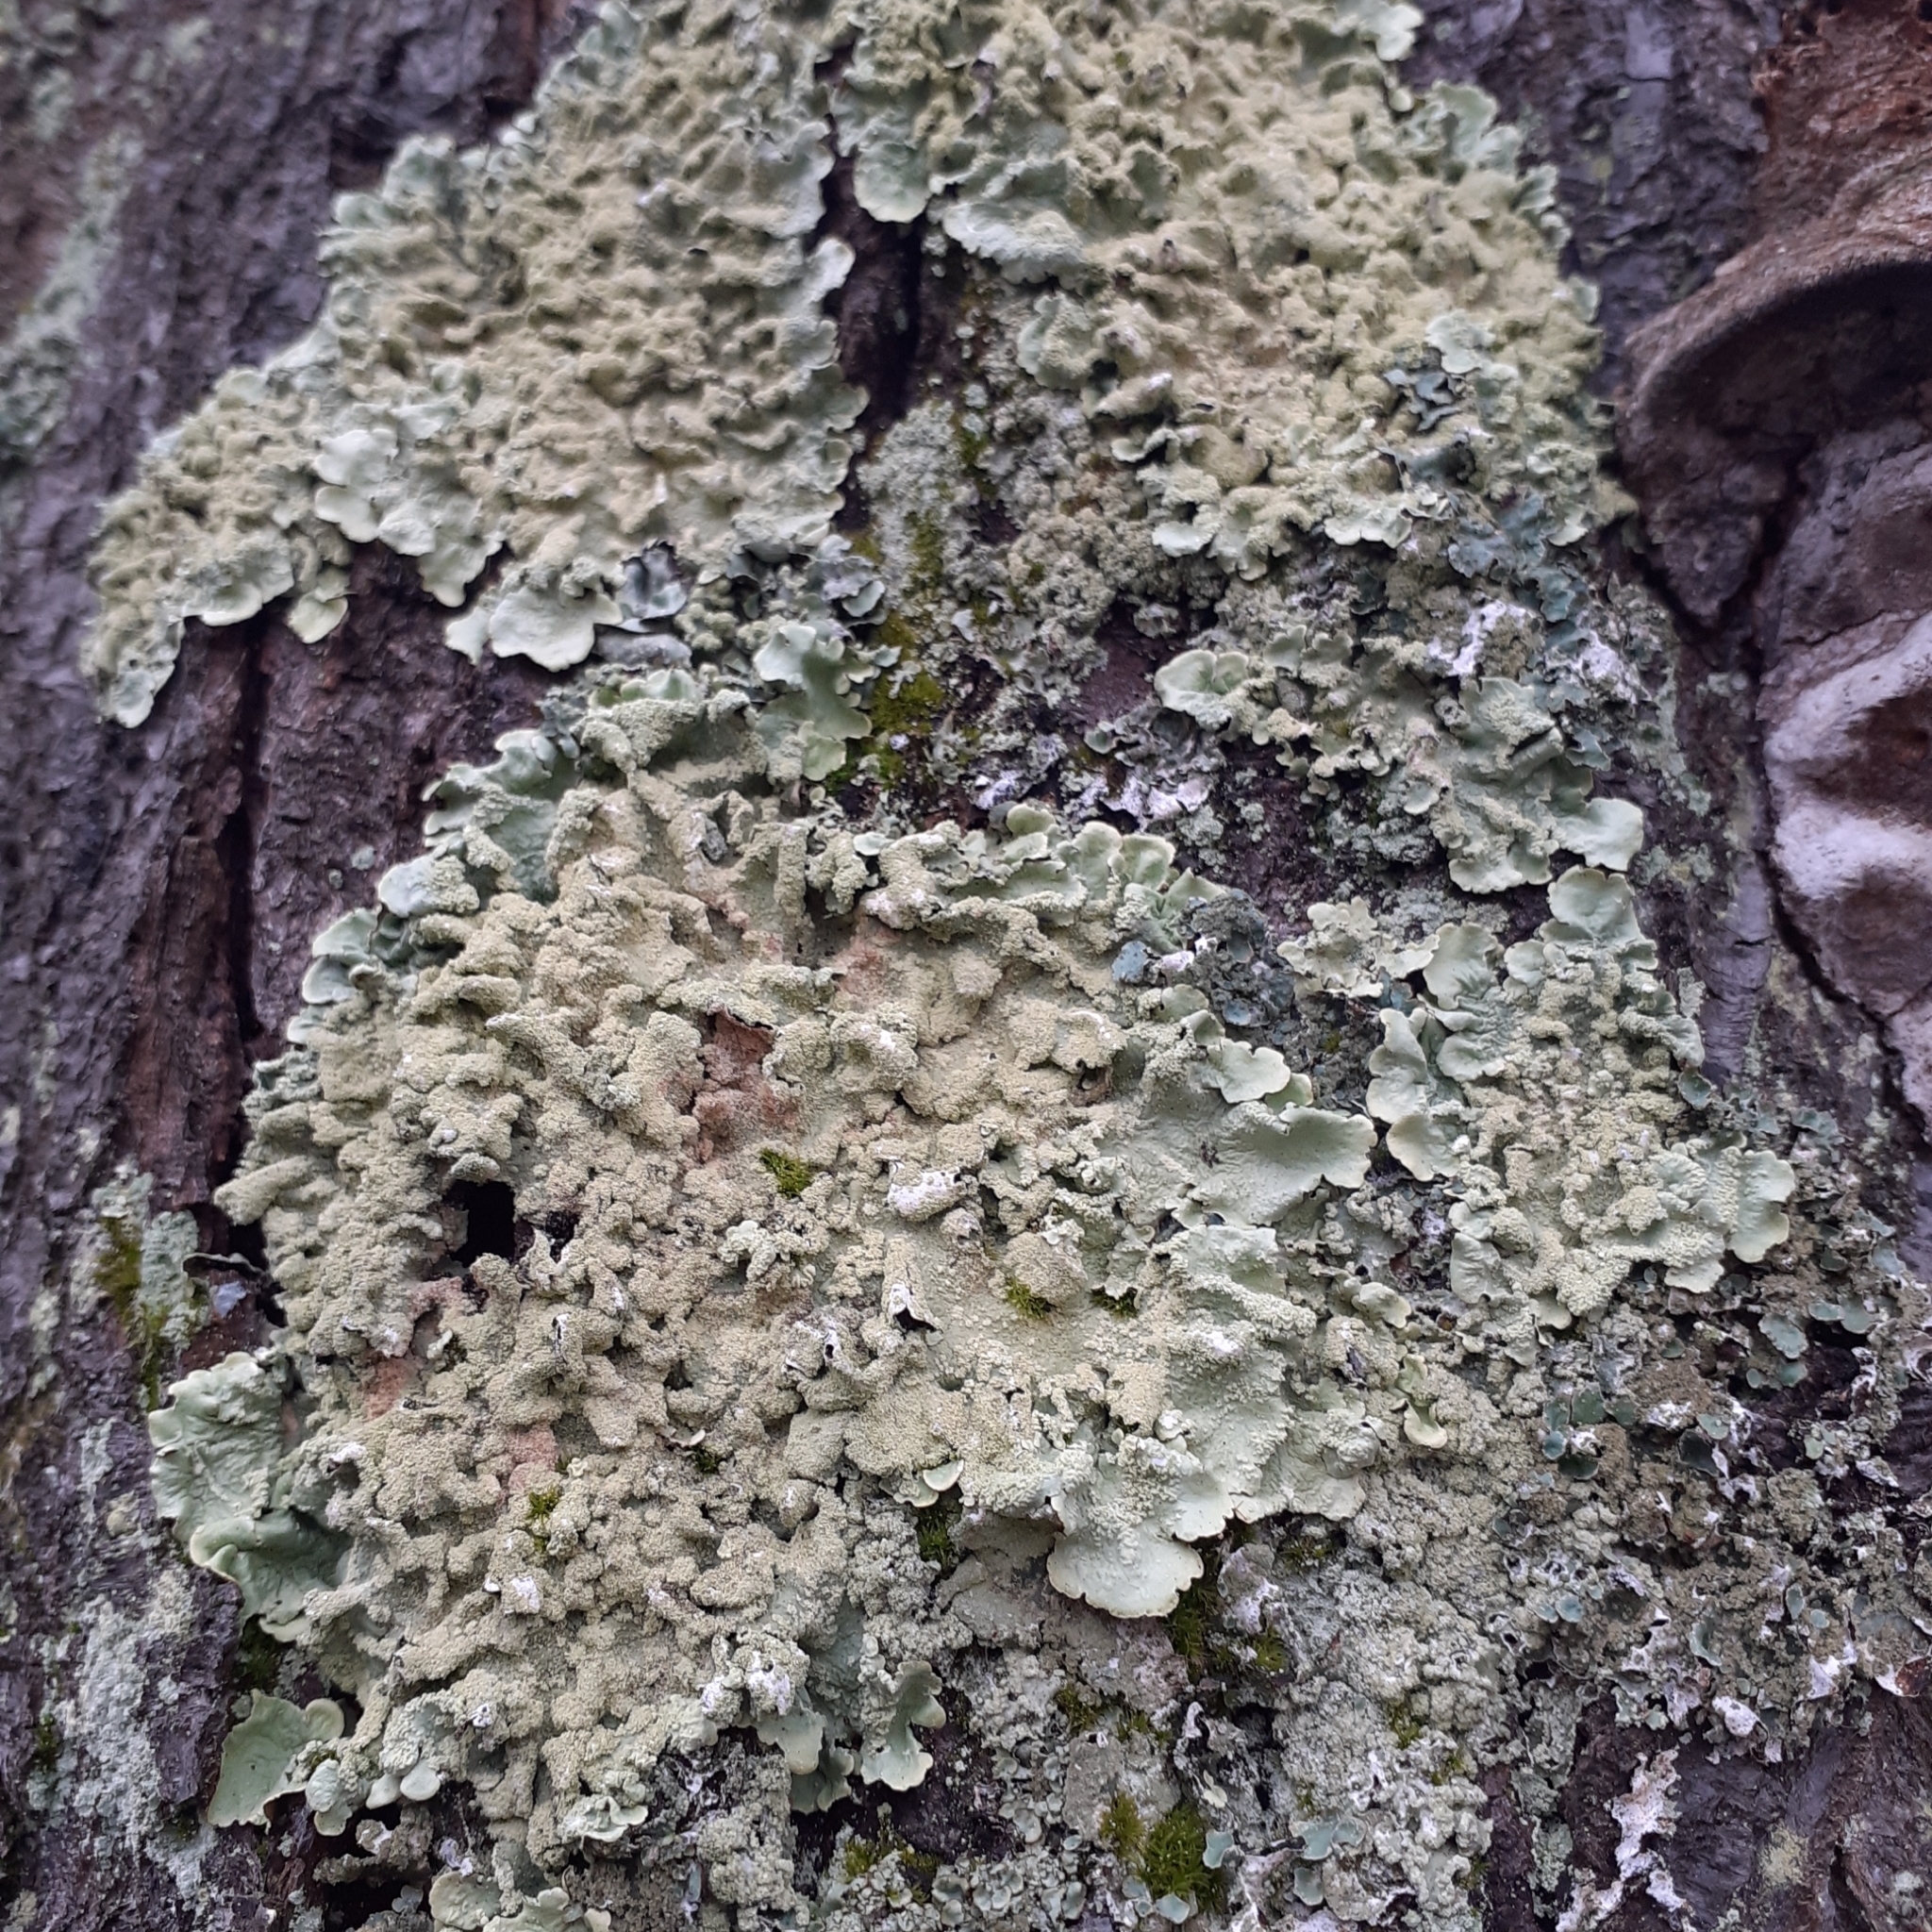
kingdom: Fungi
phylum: Ascomycota
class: Lecanoromycetes
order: Lecanorales
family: Parmeliaceae
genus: Flavoparmelia
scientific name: Flavoparmelia caperata
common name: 40-mile per hour lichen
